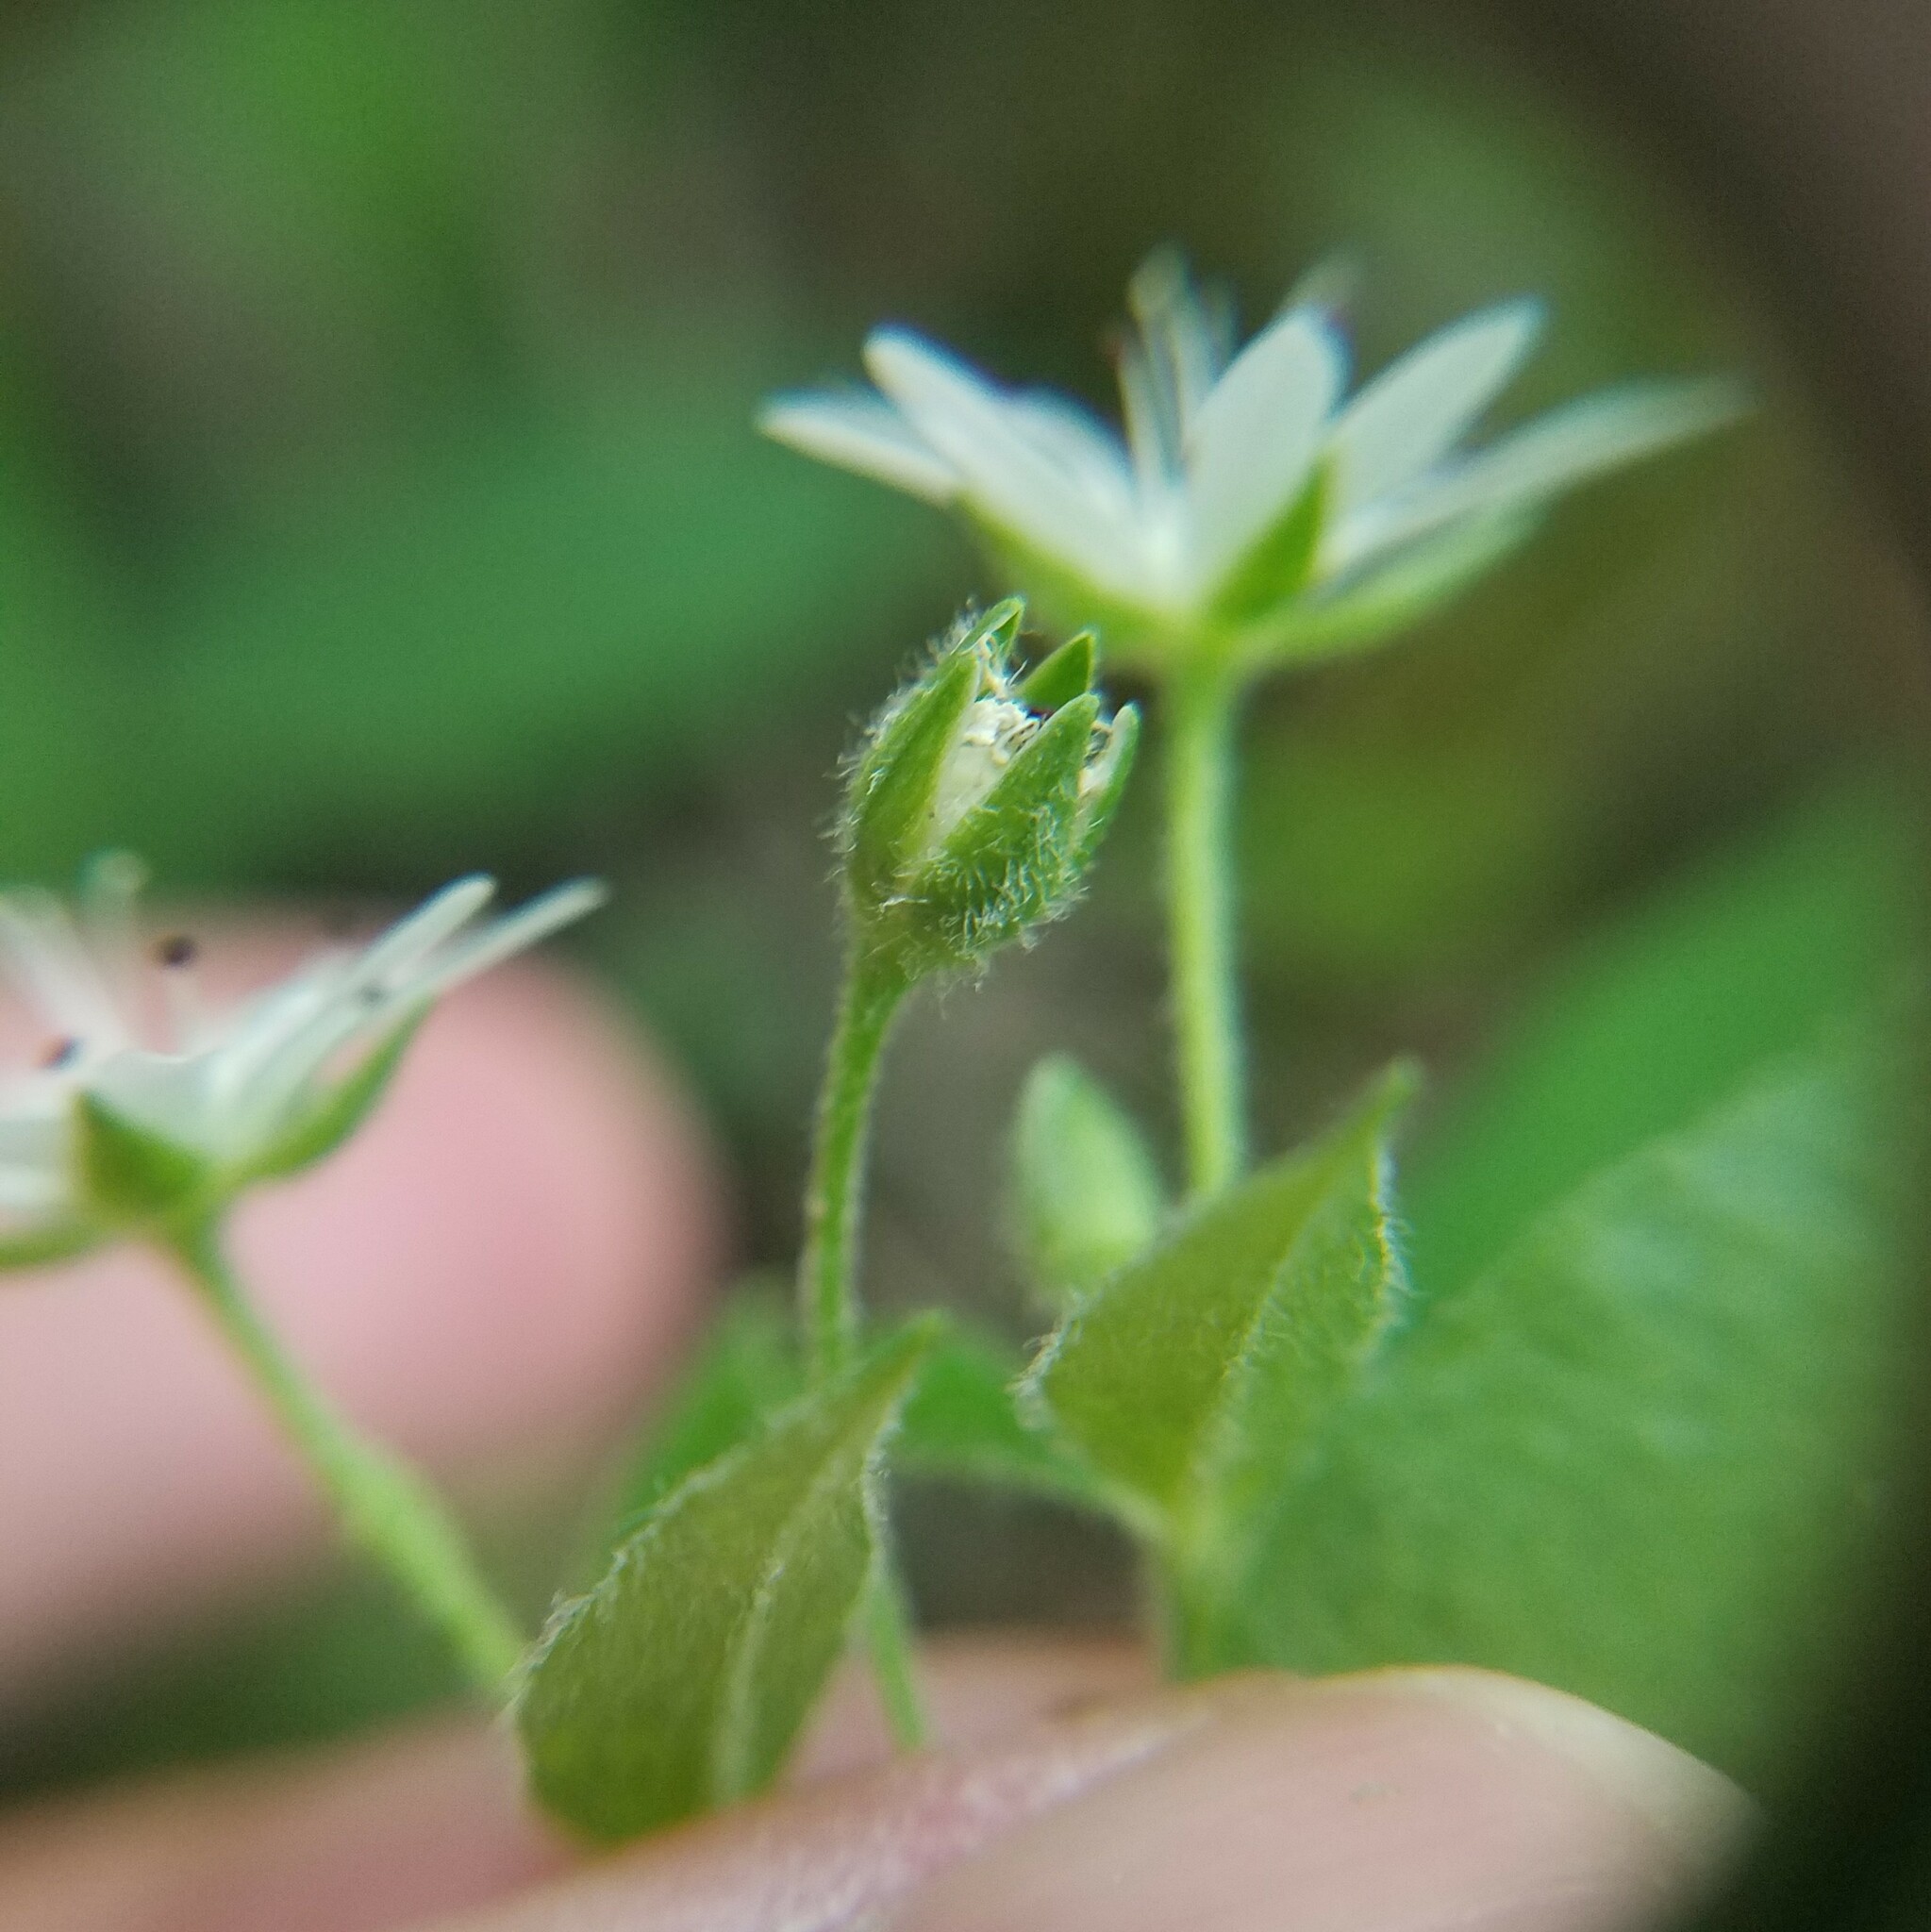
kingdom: Plantae
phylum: Tracheophyta
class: Magnoliopsida
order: Caryophyllales
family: Caryophyllaceae
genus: Stellaria
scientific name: Stellaria pubera
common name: Star chickweed
